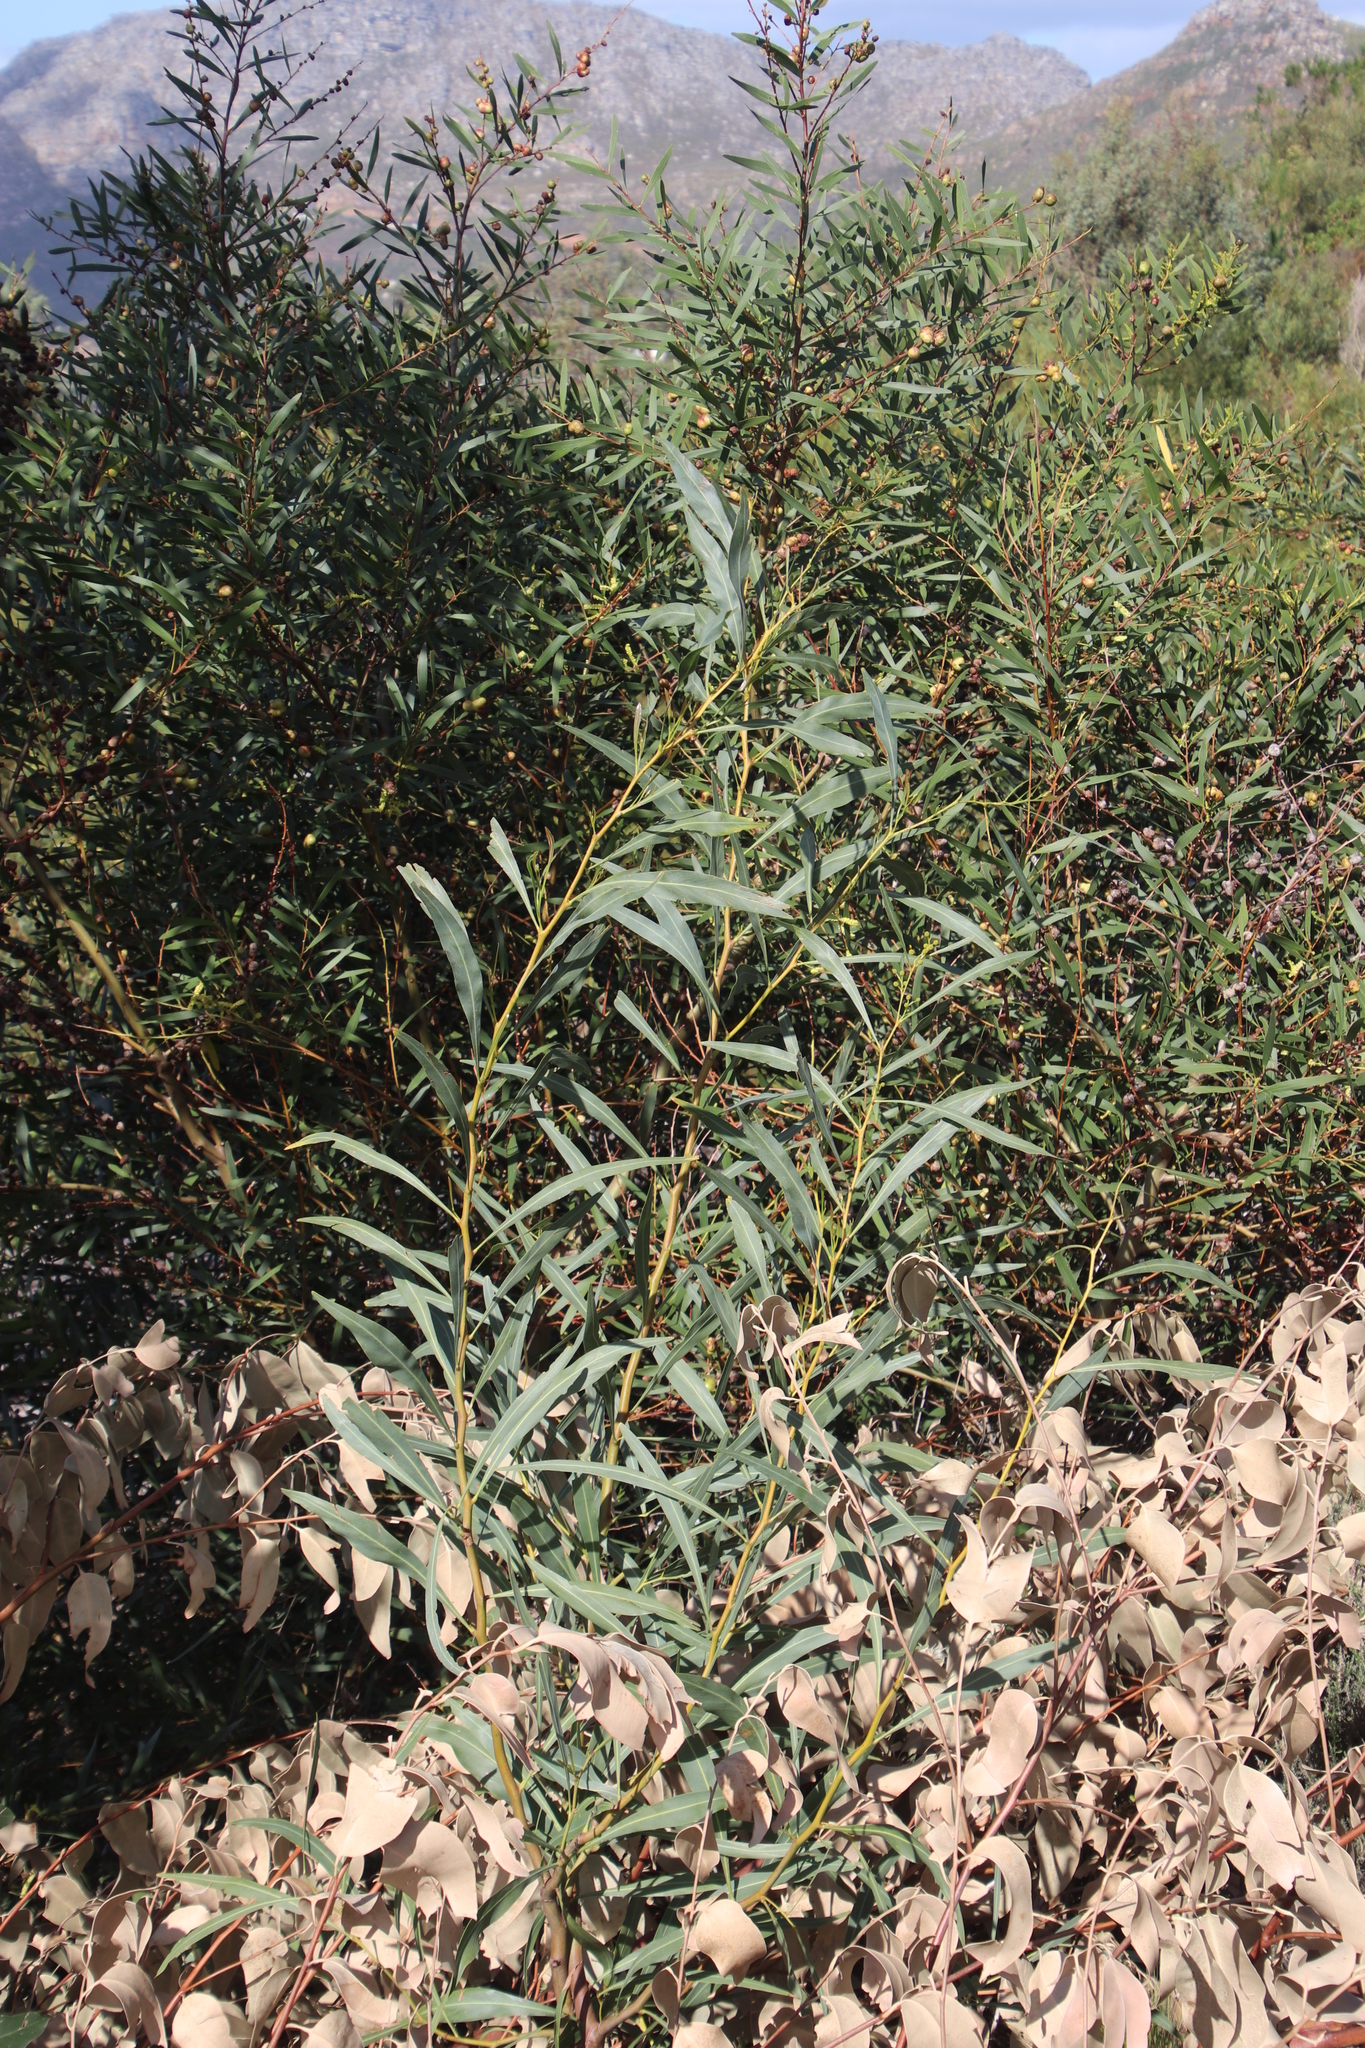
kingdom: Plantae
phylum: Tracheophyta
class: Magnoliopsida
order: Fabales
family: Fabaceae
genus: Acacia
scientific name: Acacia saligna
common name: Orange wattle
